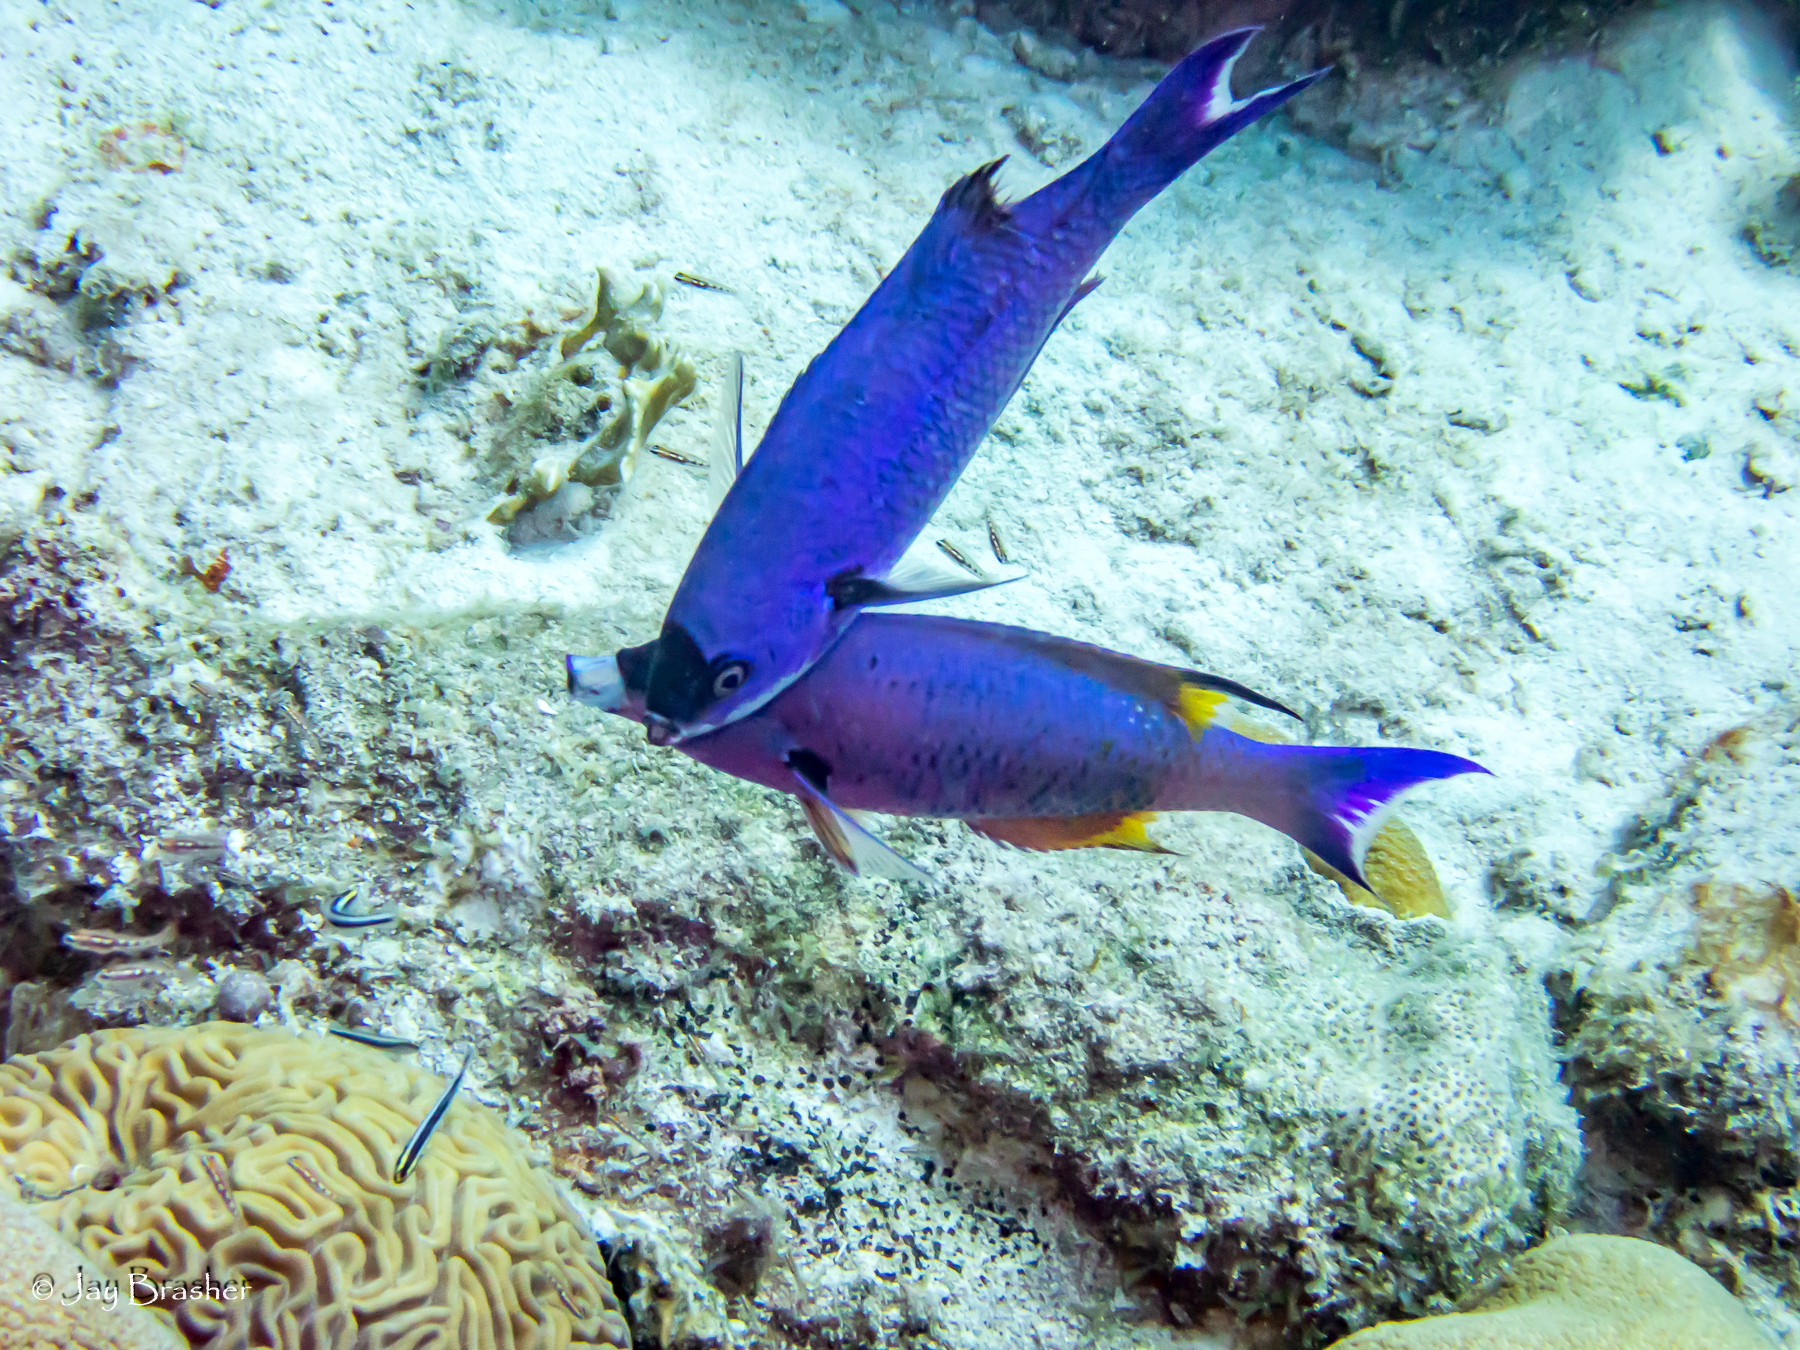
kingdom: Animalia
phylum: Cnidaria
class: Anthozoa
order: Scleractinia
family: Faviidae
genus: Diploria
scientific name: Diploria labyrinthiformis
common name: Grooved brain coral
